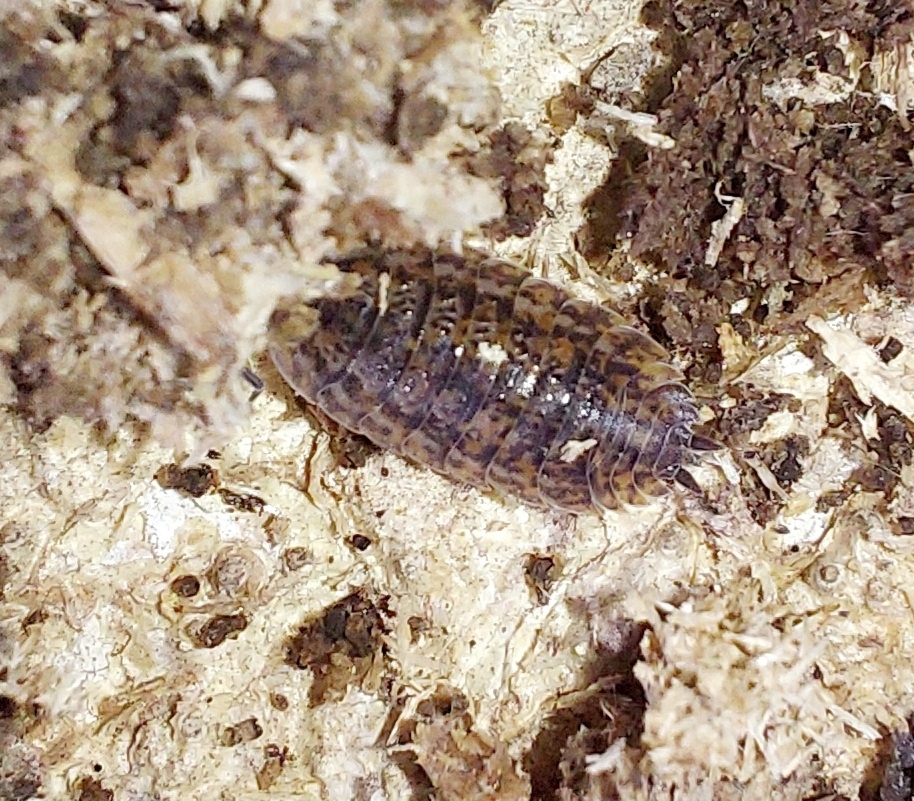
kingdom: Animalia
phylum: Arthropoda
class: Malacostraca
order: Isopoda
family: Trachelipodidae
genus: Trachelipus
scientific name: Trachelipus rathkii
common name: Isopod
